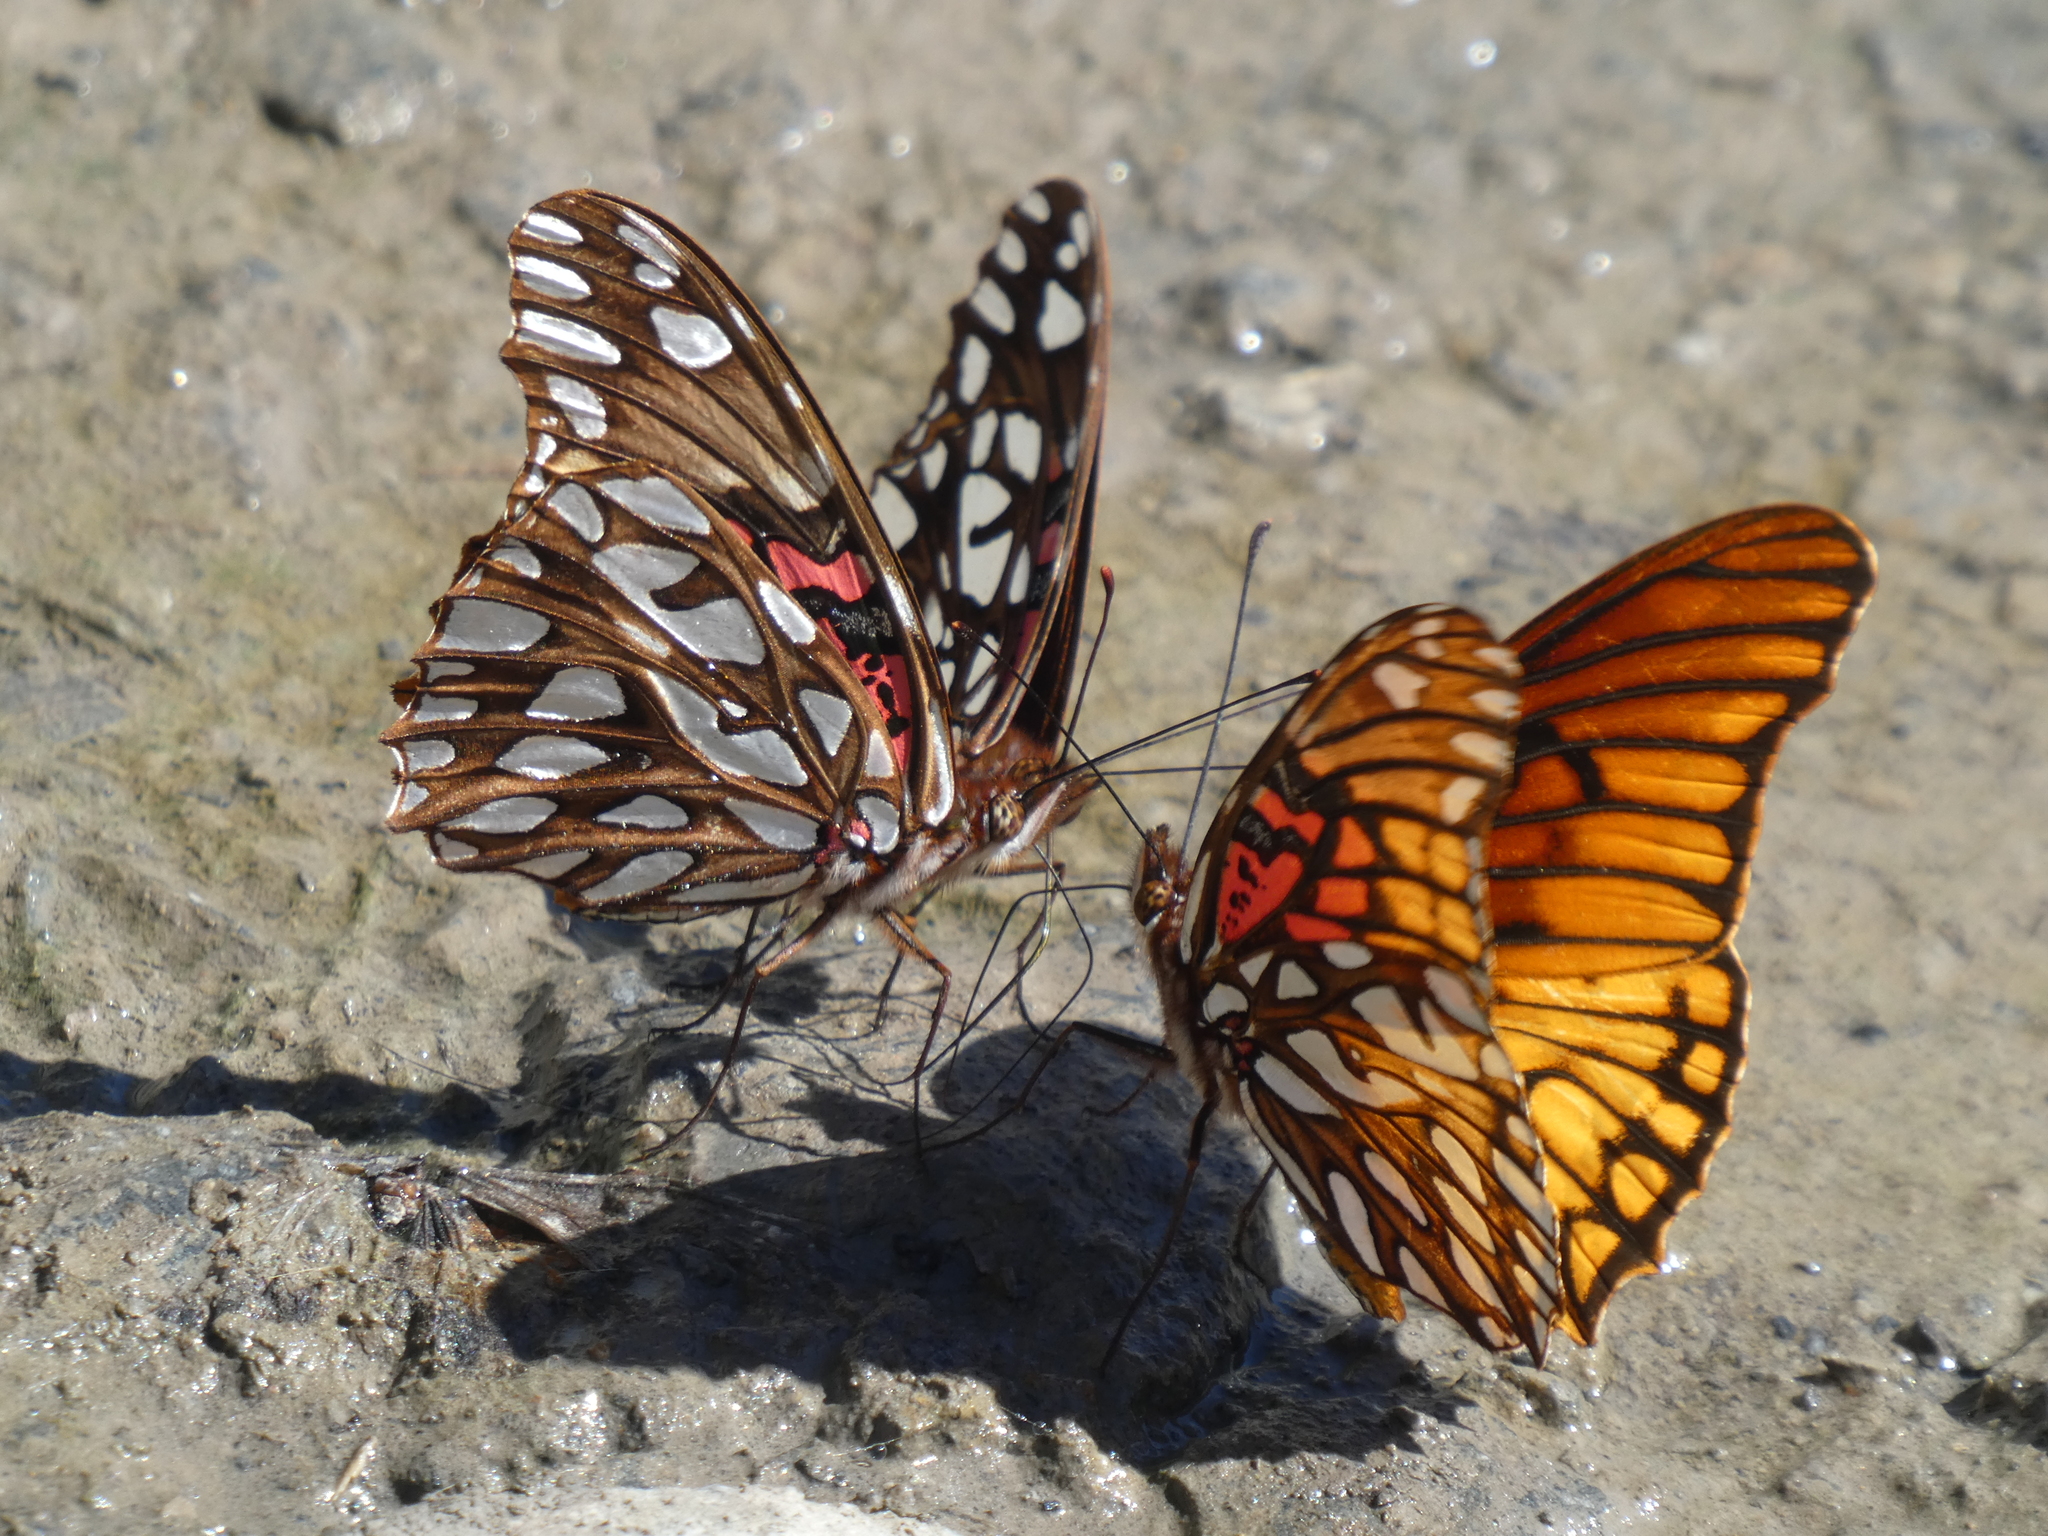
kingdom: Animalia
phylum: Arthropoda
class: Insecta
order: Lepidoptera
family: Nymphalidae
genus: Dione
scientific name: Dione moneta
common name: Mexican silverspot
